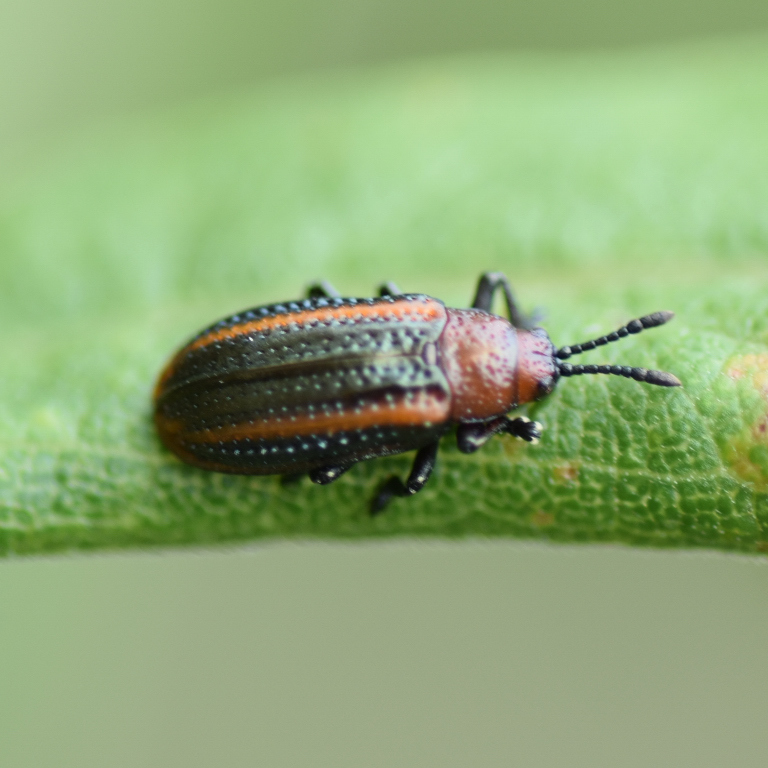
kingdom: Animalia
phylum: Arthropoda
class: Insecta
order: Coleoptera
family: Chrysomelidae
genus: Microrhopala
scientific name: Microrhopala vittata
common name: Goldenrod leaf miner beetle
